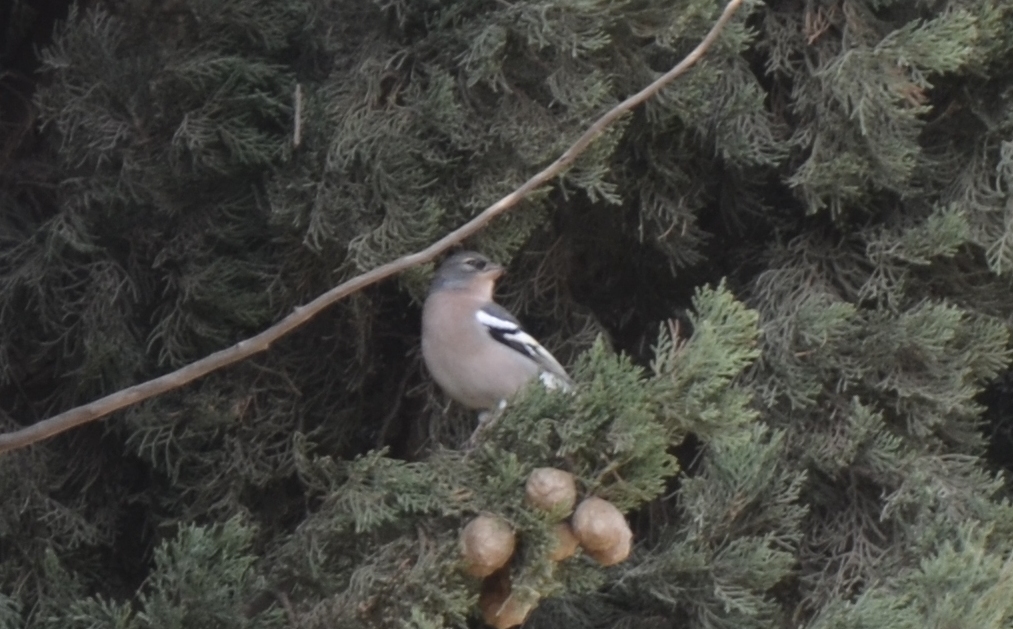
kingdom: Animalia
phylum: Chordata
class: Aves
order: Passeriformes
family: Fringillidae
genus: Fringilla
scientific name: Fringilla spodiogenys
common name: African chaffinch
